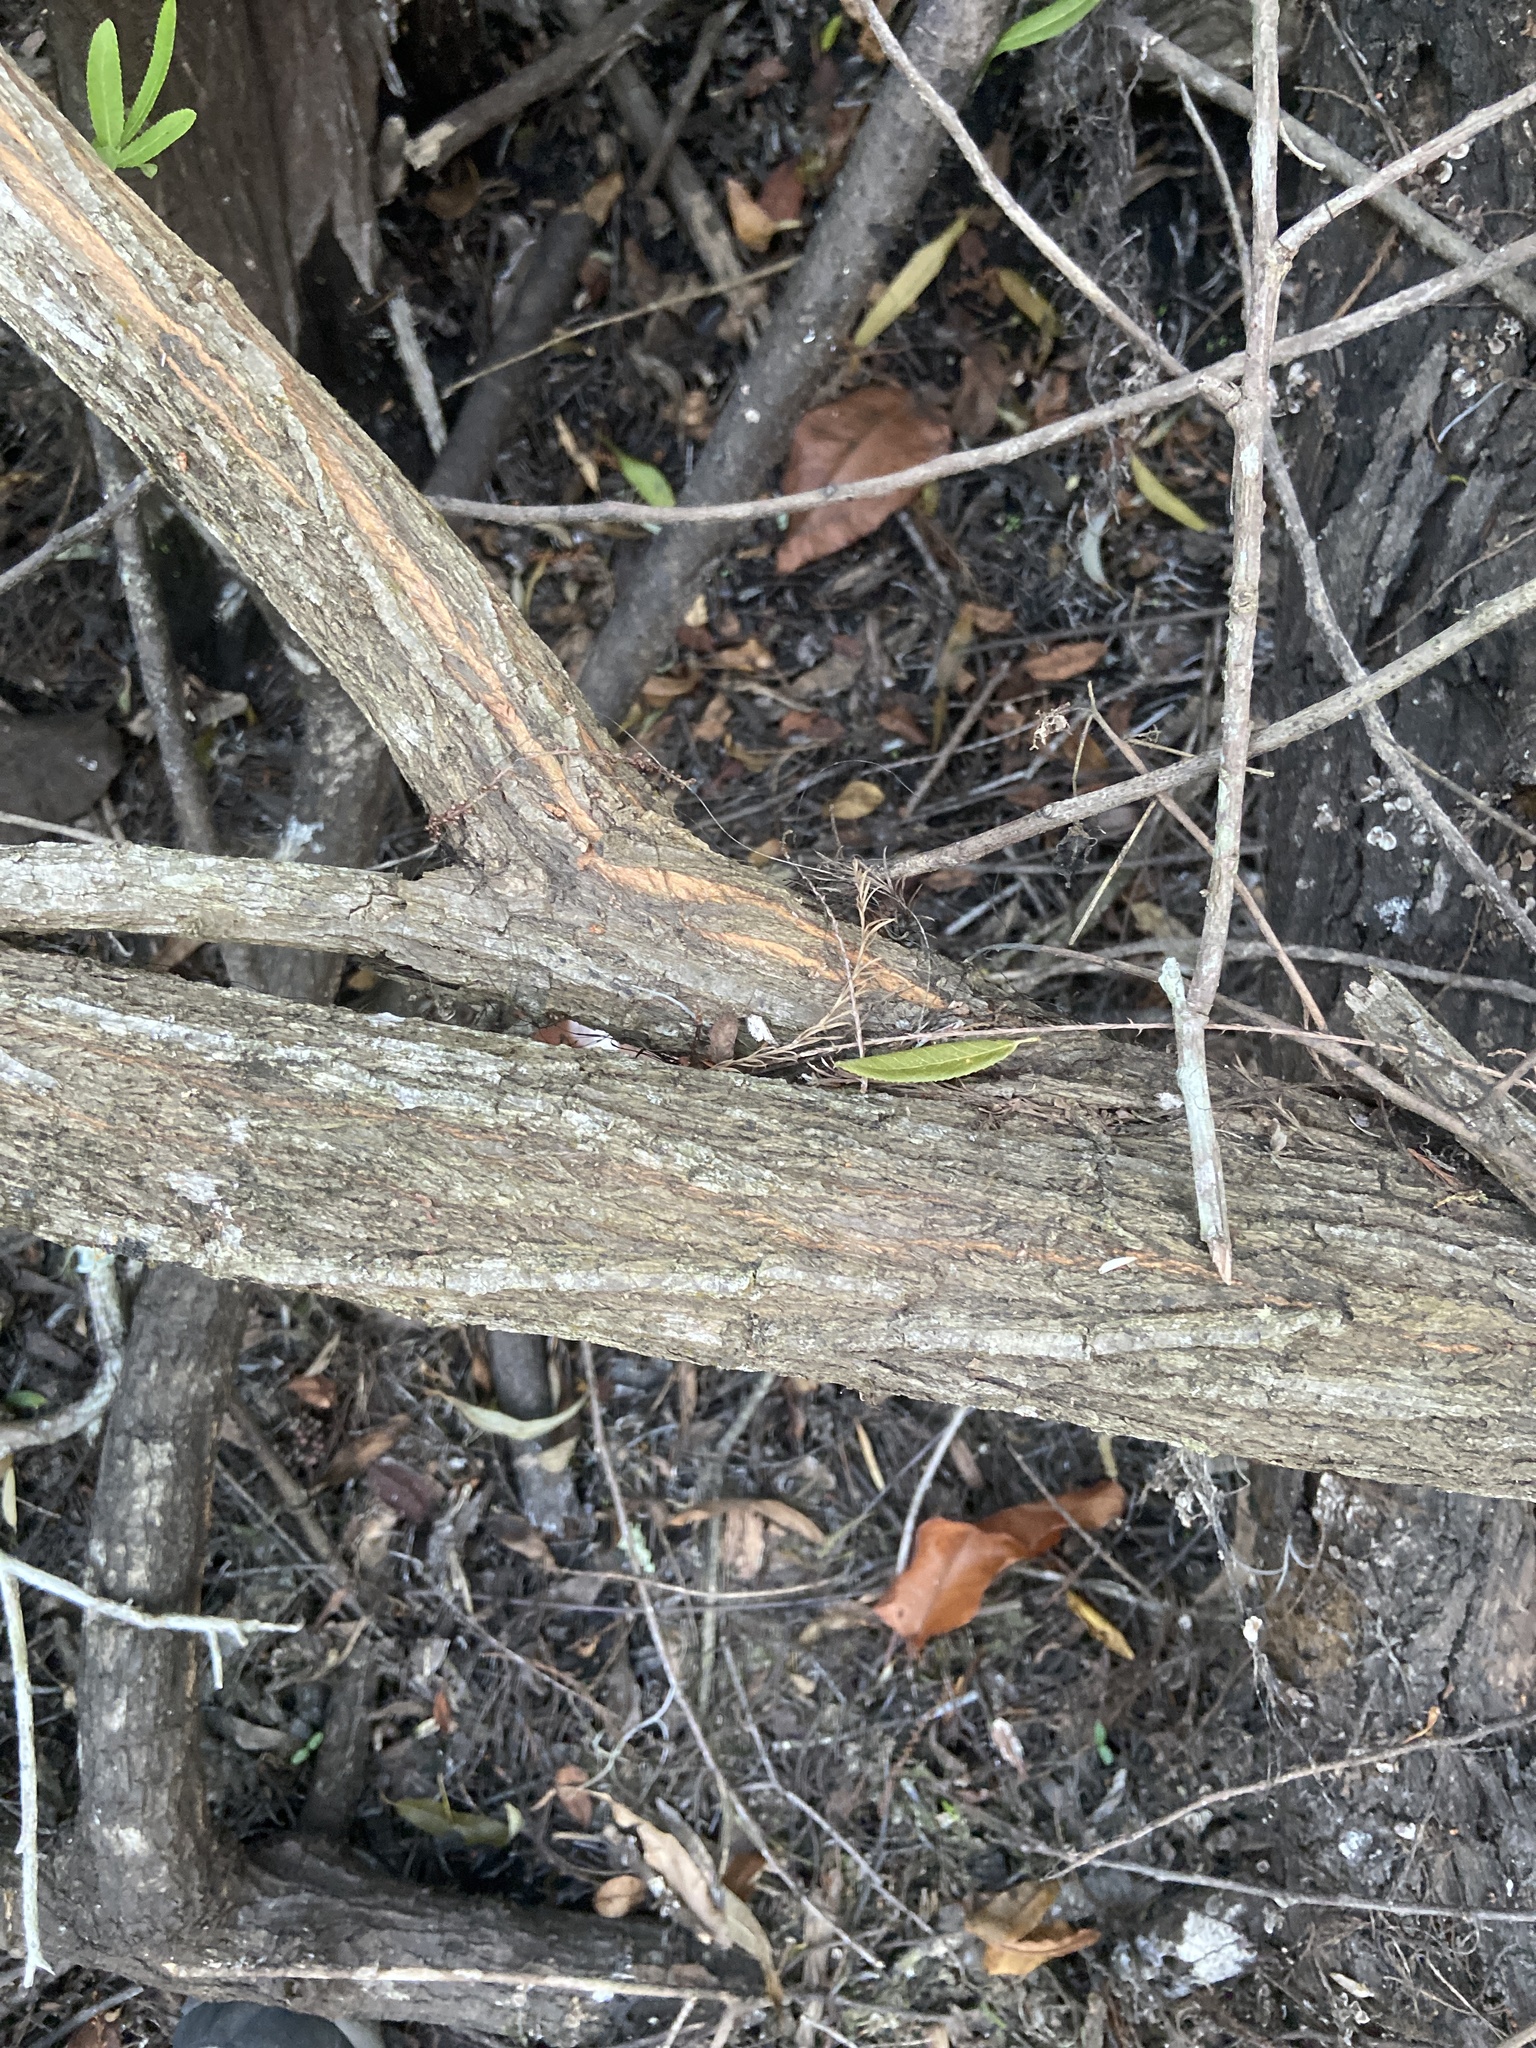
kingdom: Plantae
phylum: Tracheophyta
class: Magnoliopsida
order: Malpighiales
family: Salicaceae
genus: Salix
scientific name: Salix caroliniana
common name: Carolina willow
